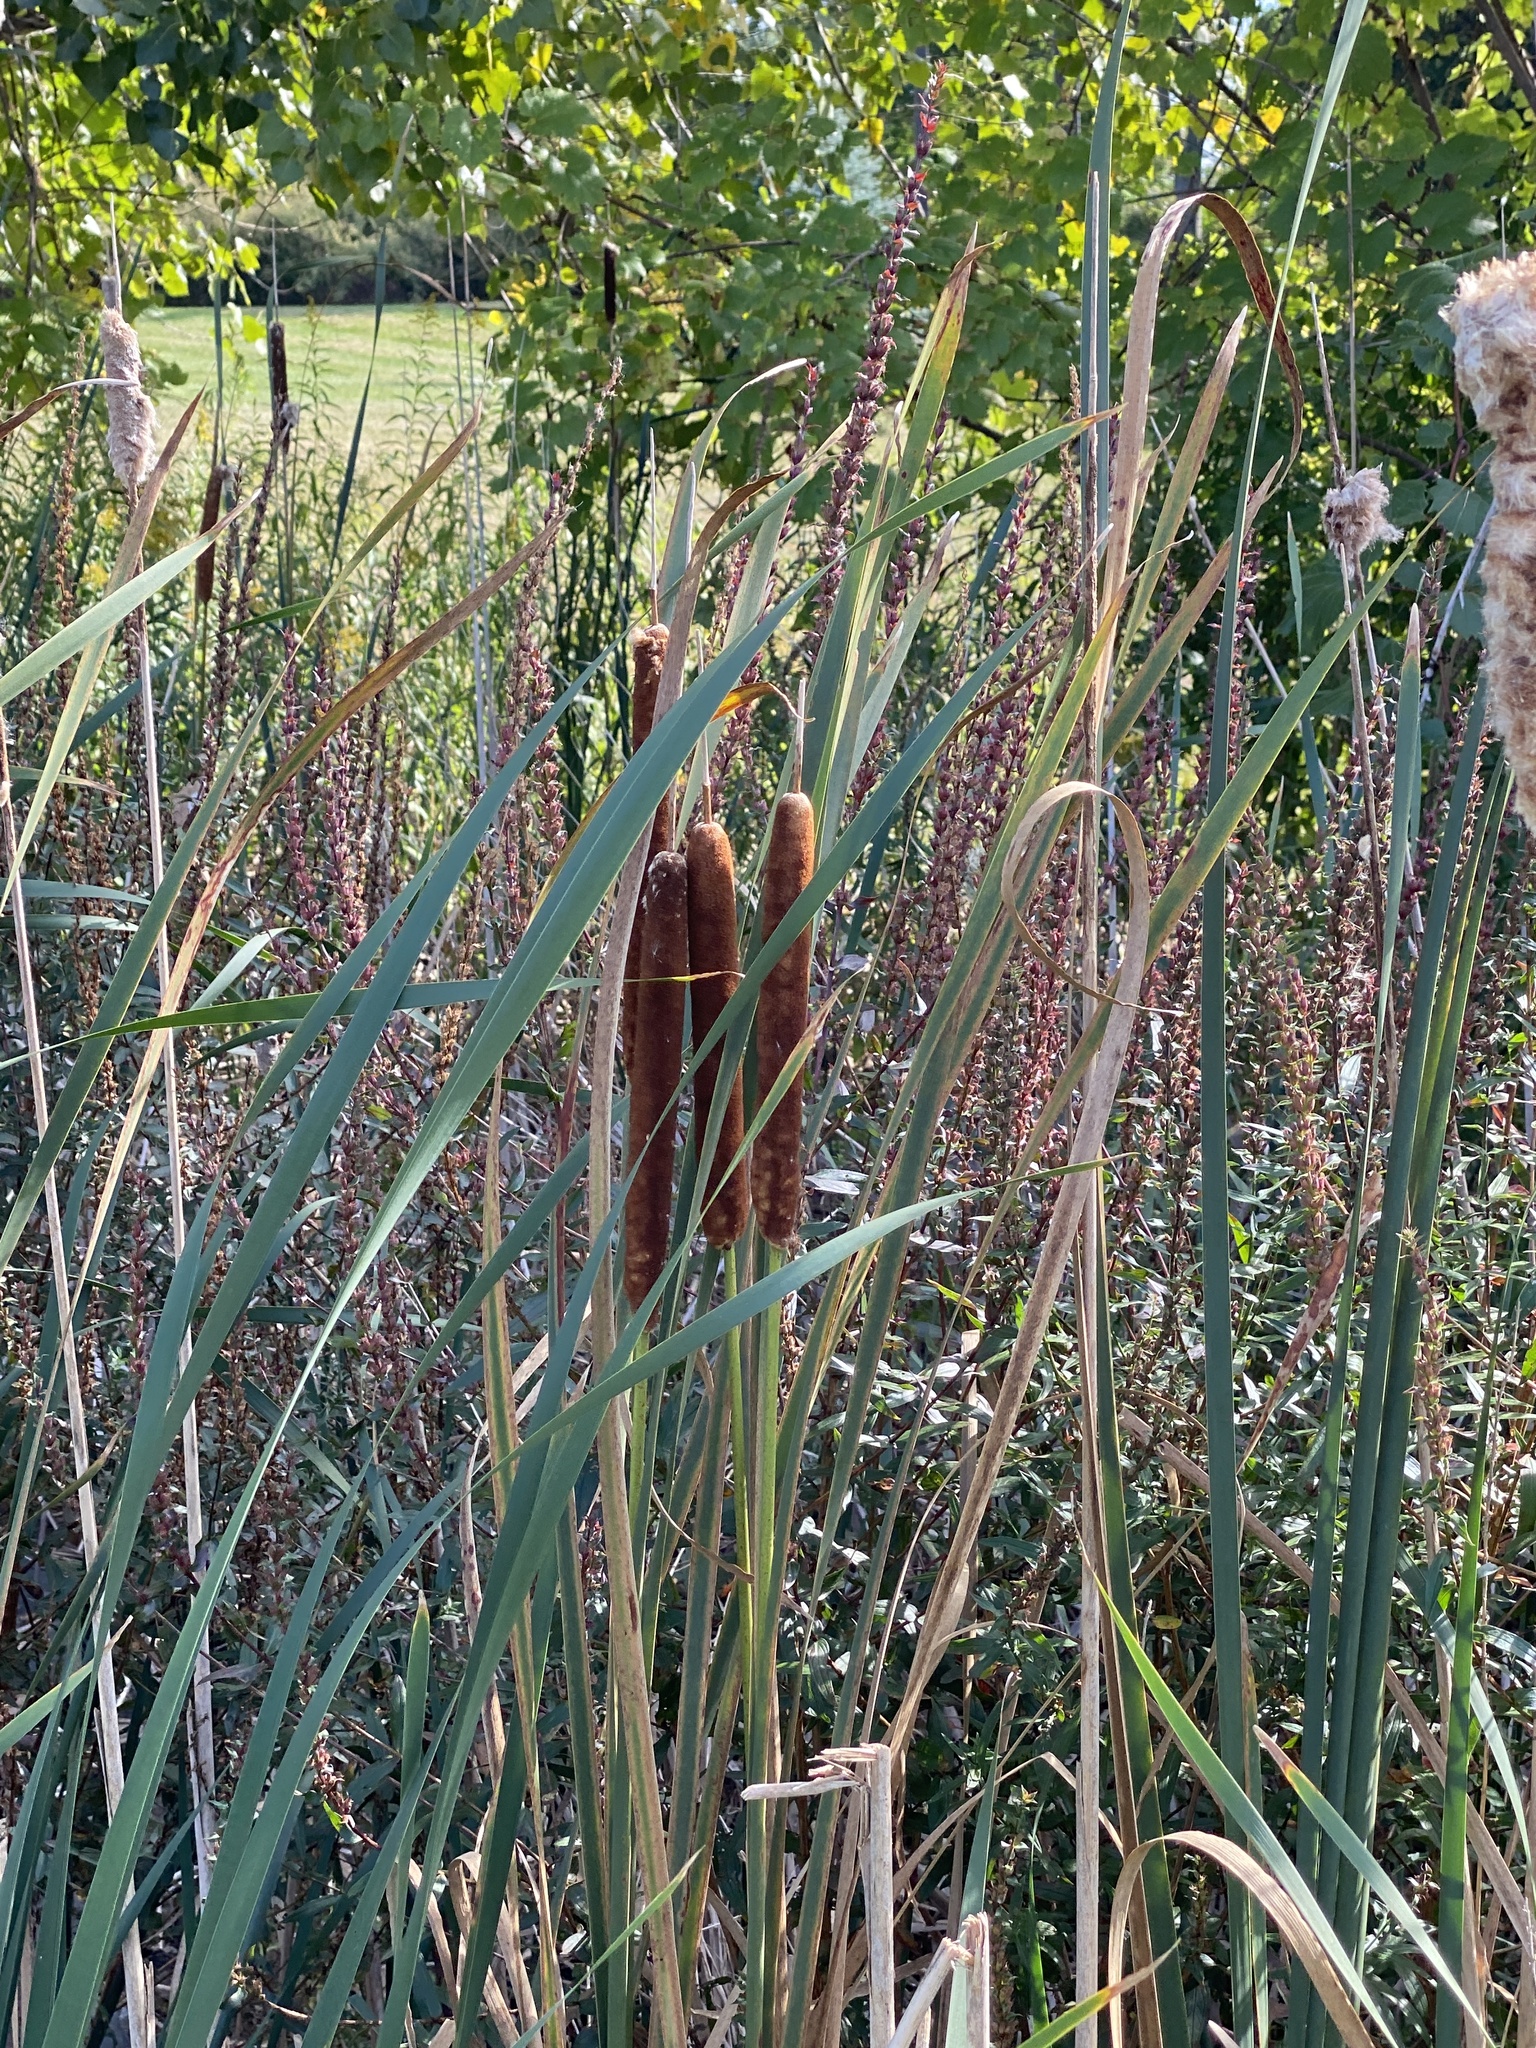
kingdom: Plantae
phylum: Tracheophyta
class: Liliopsida
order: Poales
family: Typhaceae
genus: Typha
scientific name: Typha angustifolia
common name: Lesser bulrush
